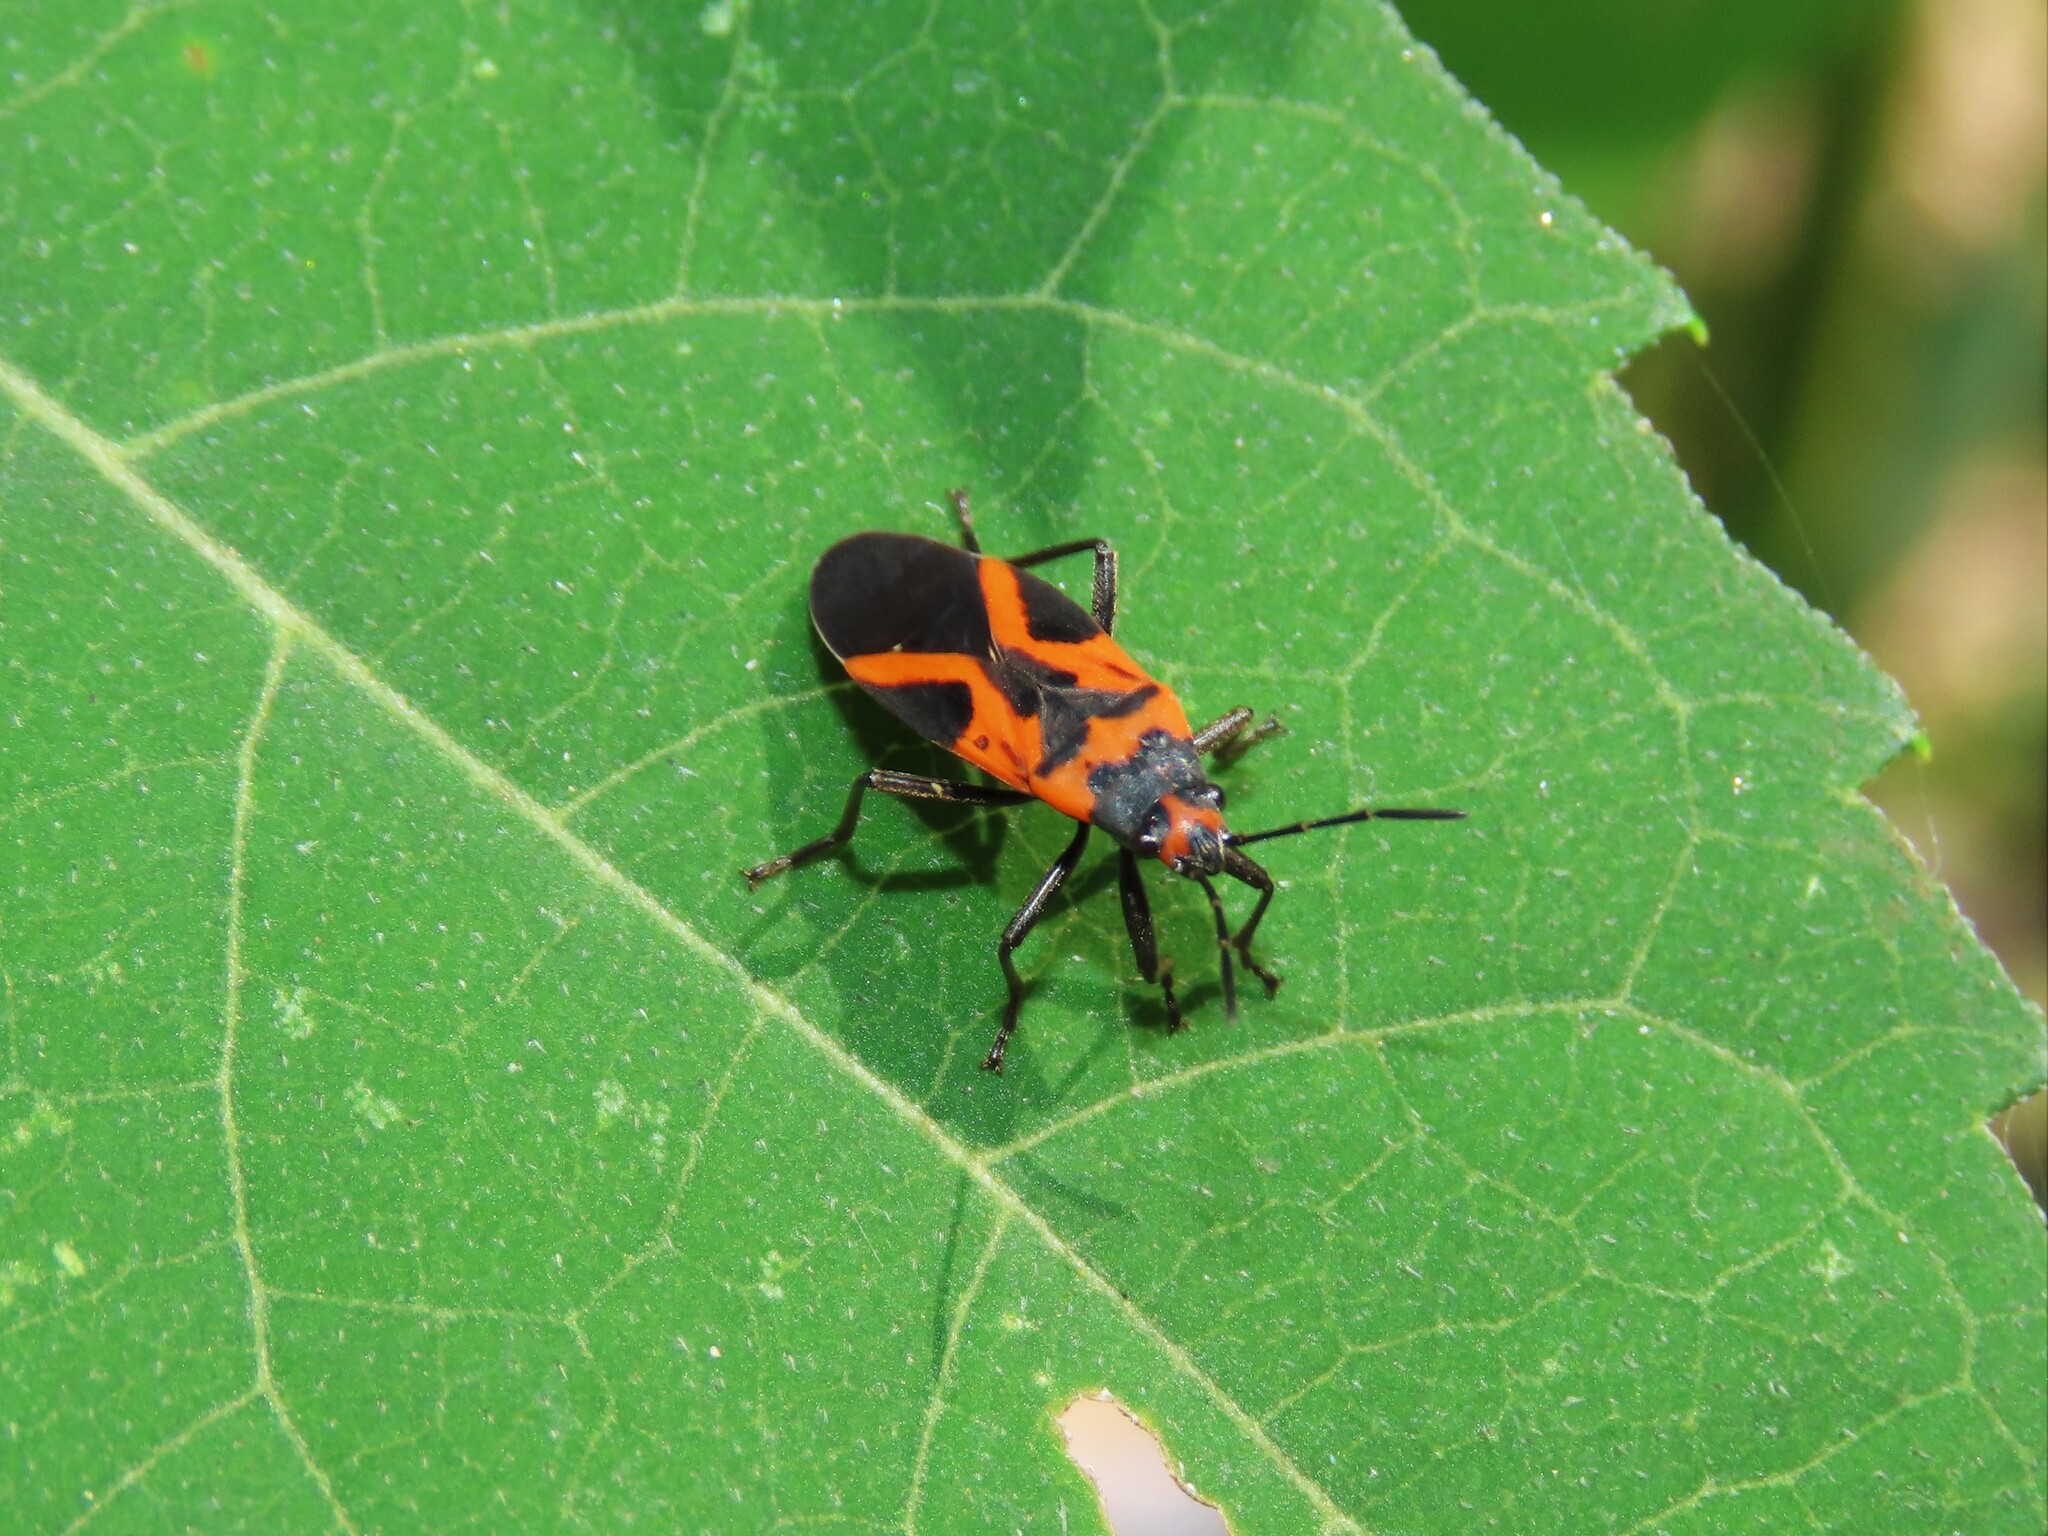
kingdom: Animalia
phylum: Arthropoda
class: Insecta
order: Hemiptera
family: Lygaeidae
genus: Lygaeus
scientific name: Lygaeus turcicus
